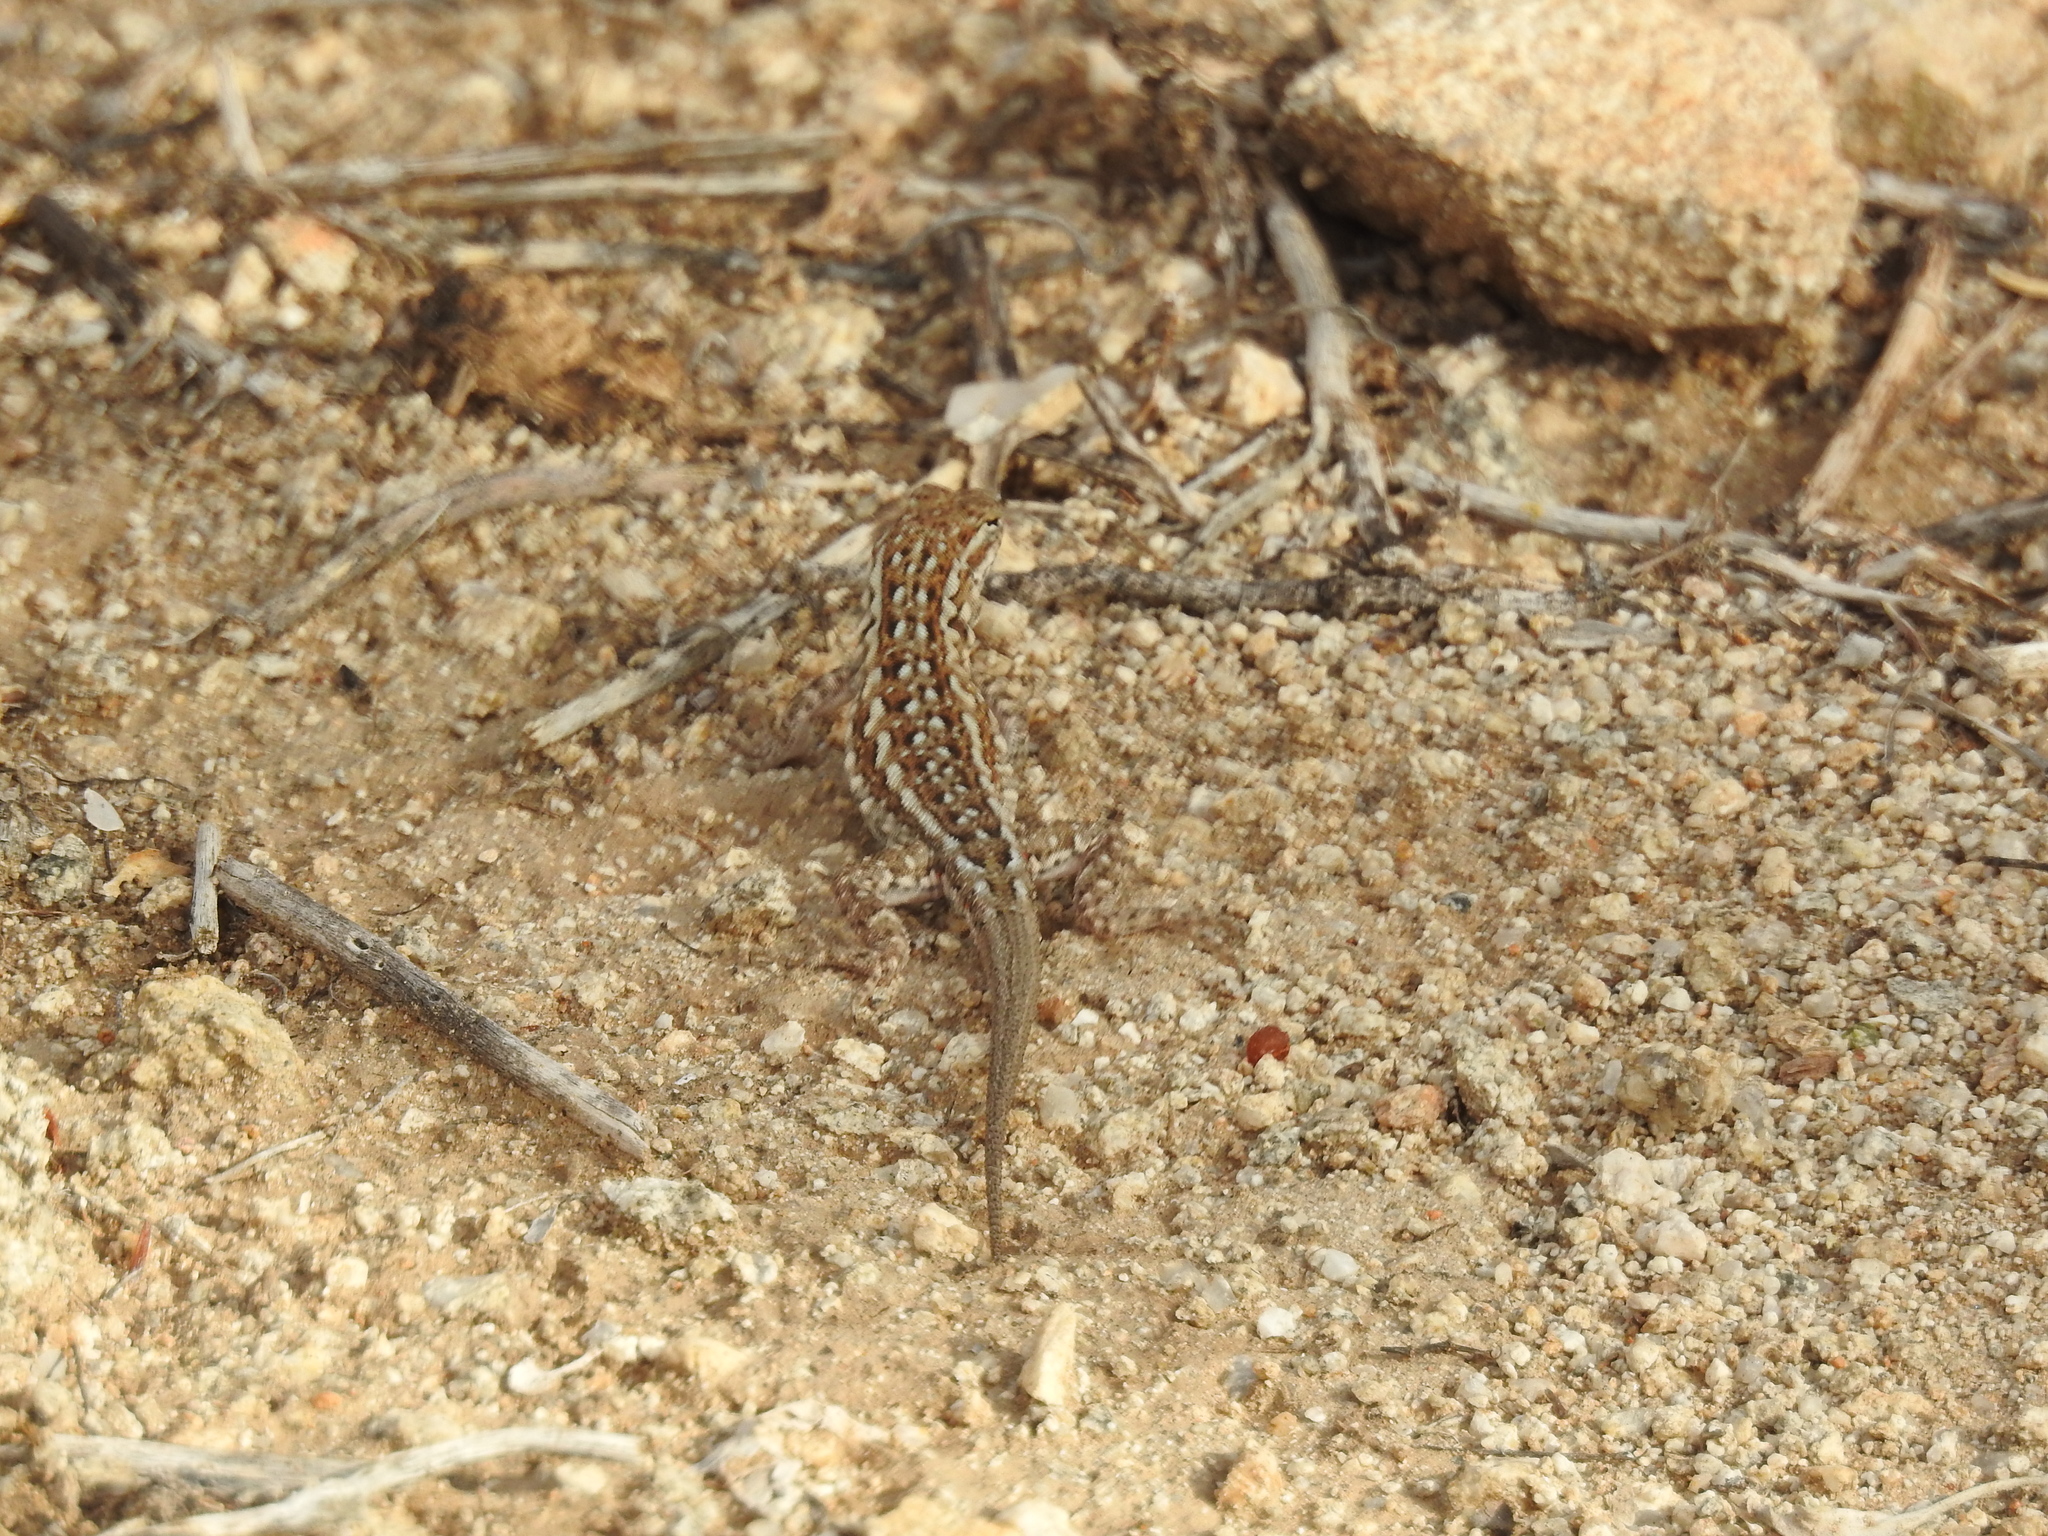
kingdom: Animalia
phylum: Chordata
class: Squamata
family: Phrynosomatidae
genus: Uta
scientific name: Uta stansburiana
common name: Side-blotched lizard
